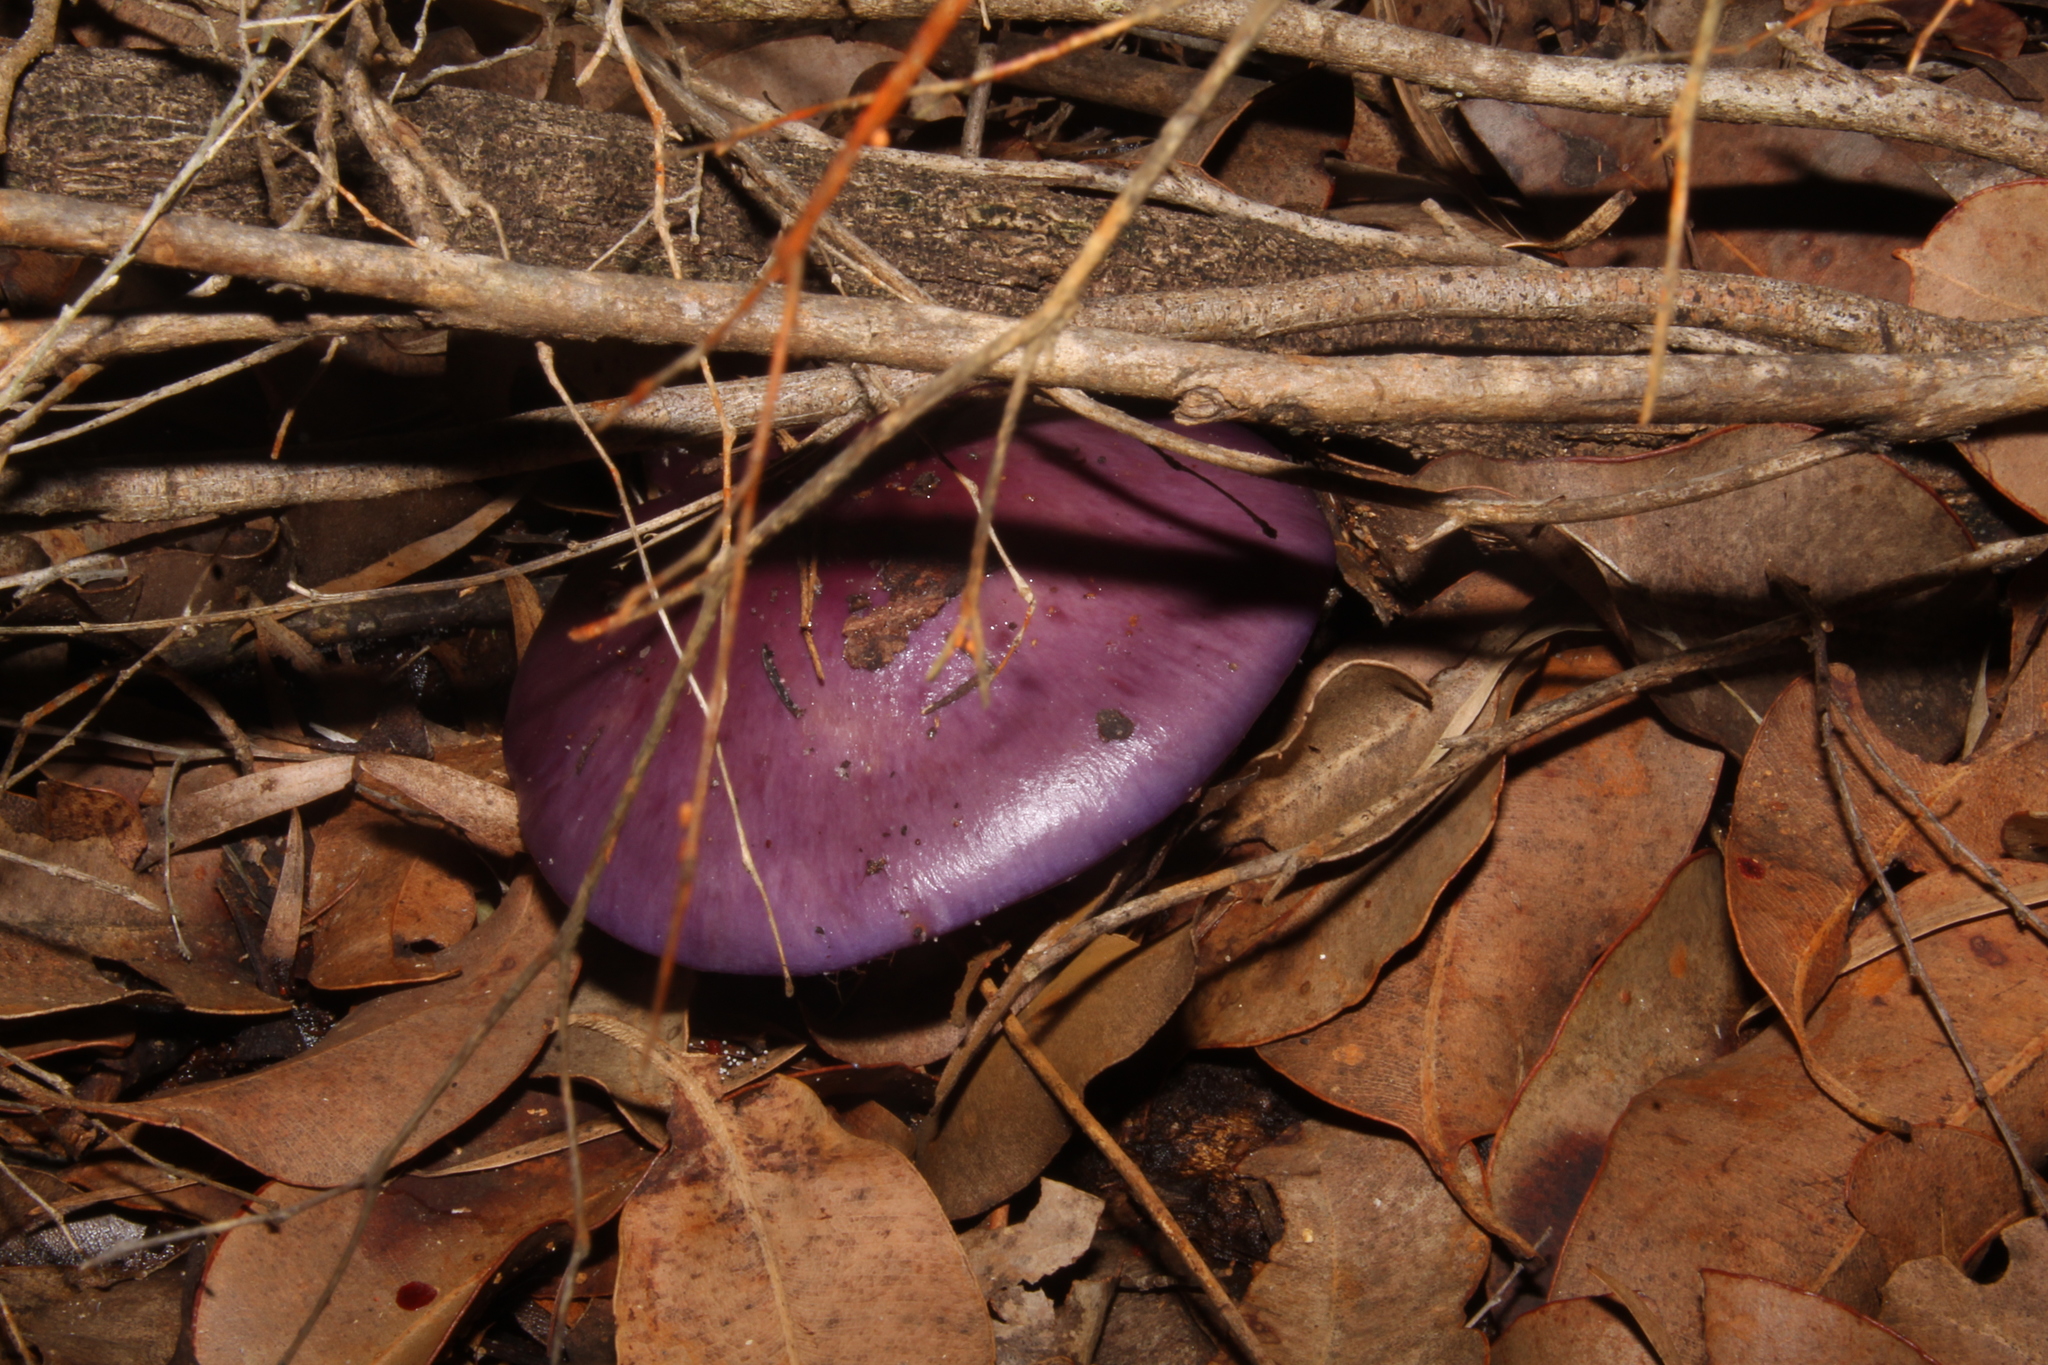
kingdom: Fungi
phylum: Basidiomycota
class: Agaricomycetes
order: Agaricales
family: Cortinariaceae
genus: Cortinarius
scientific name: Cortinarius archeri
